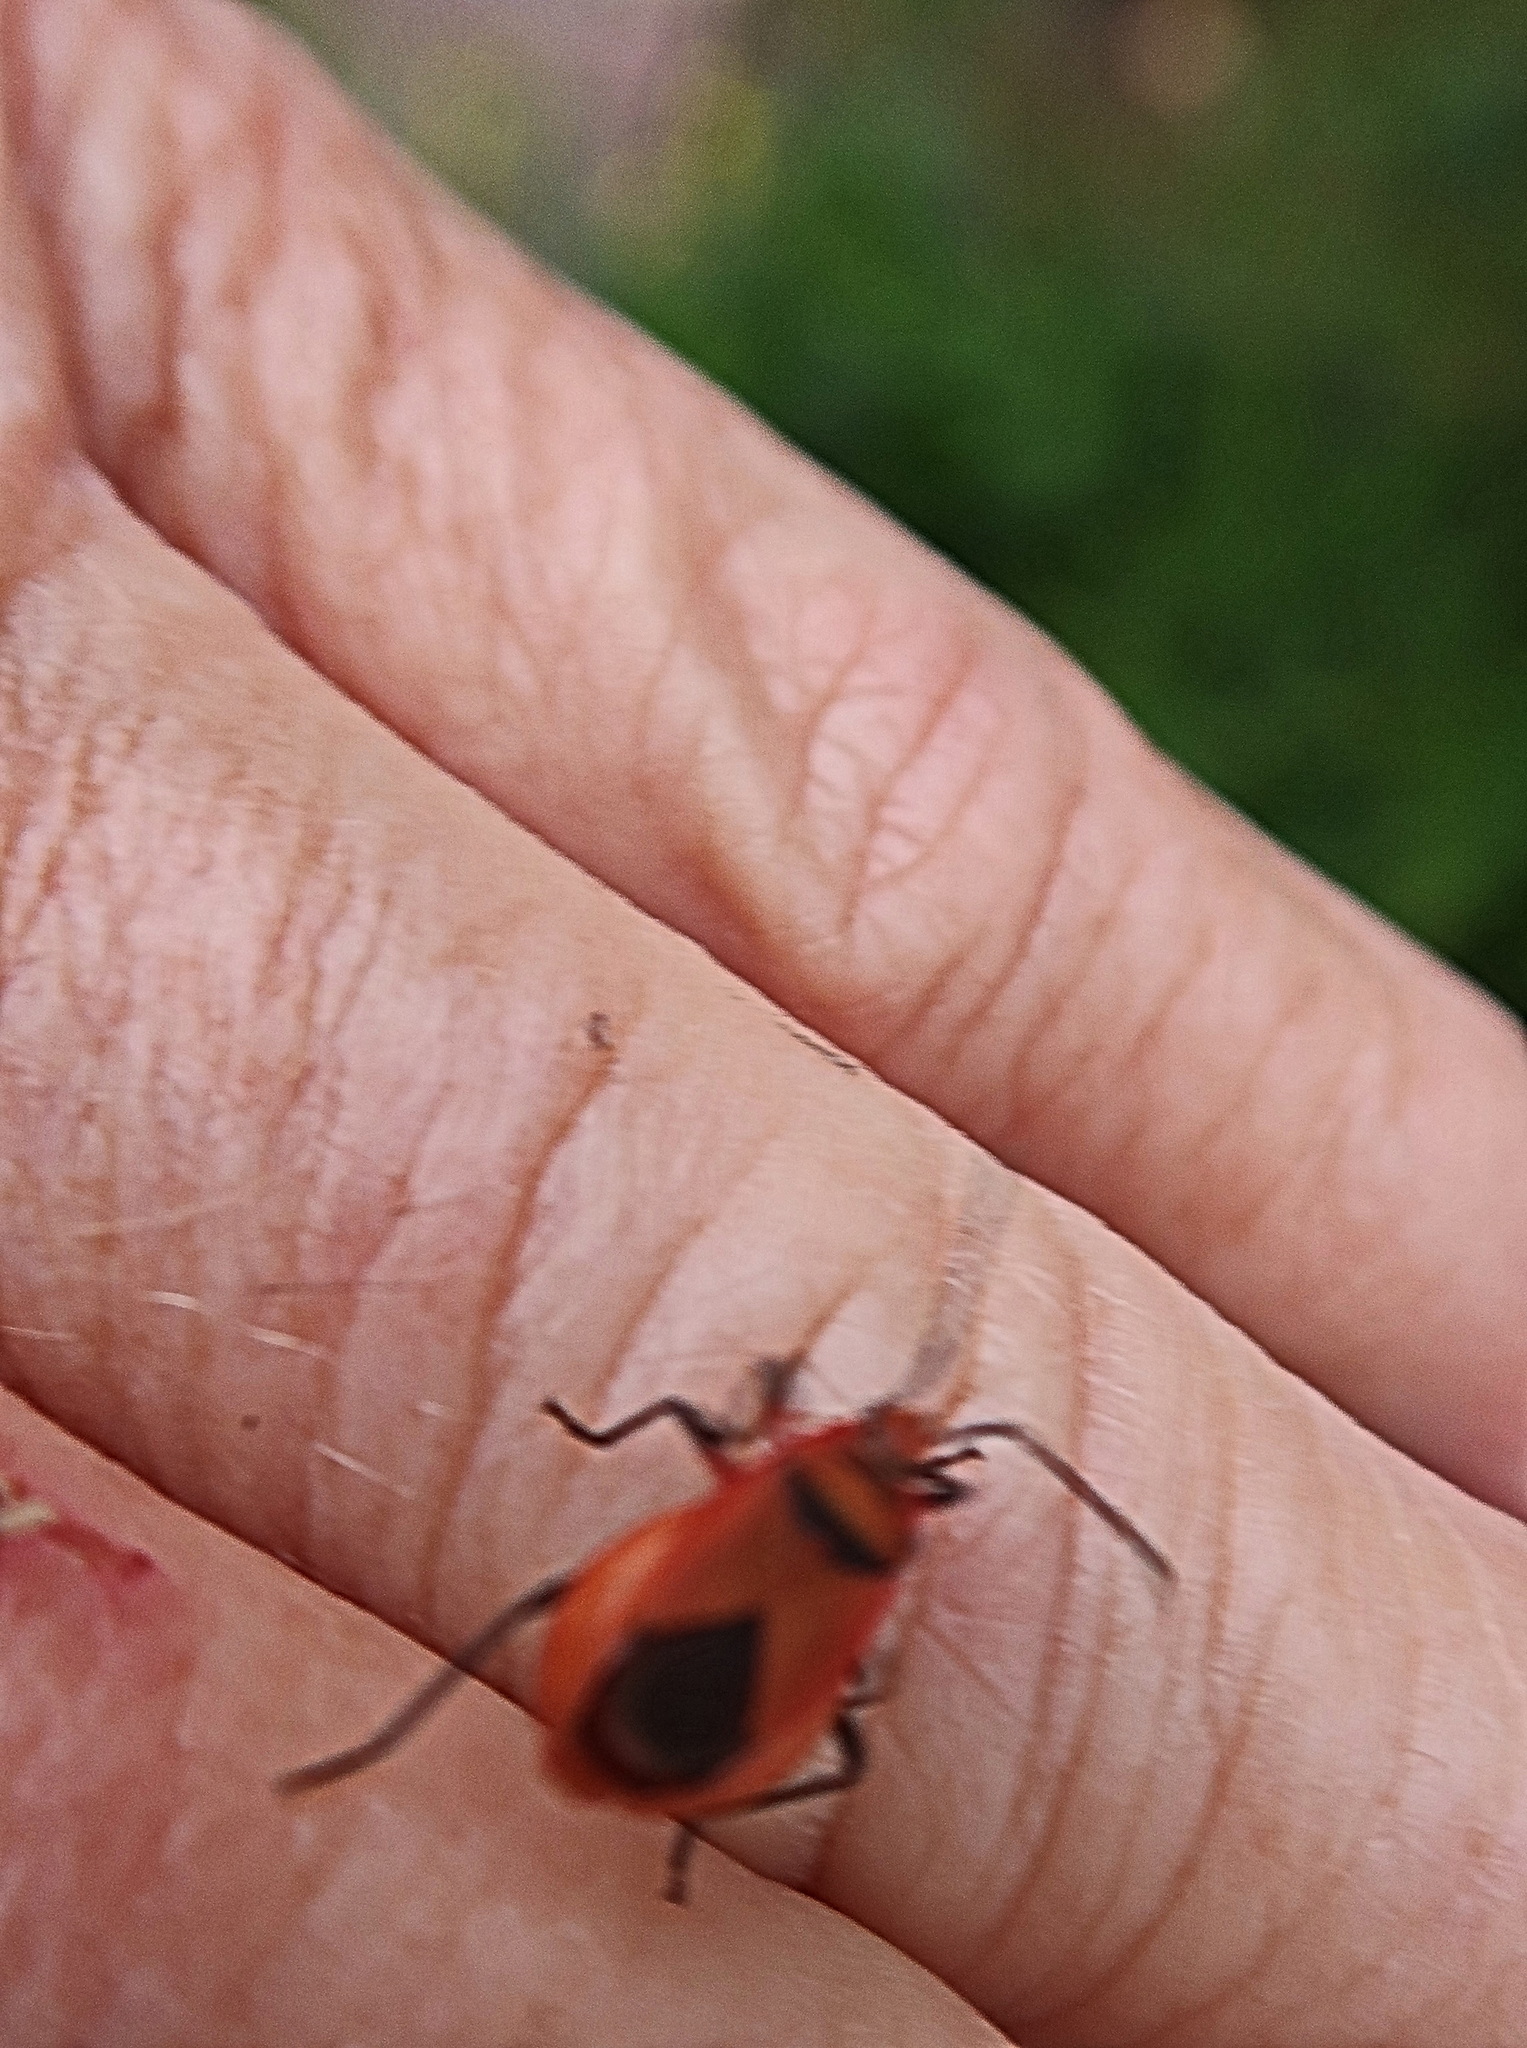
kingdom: Animalia
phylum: Arthropoda
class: Insecta
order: Hemiptera
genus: Cenaeus
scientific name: Cenaeus
